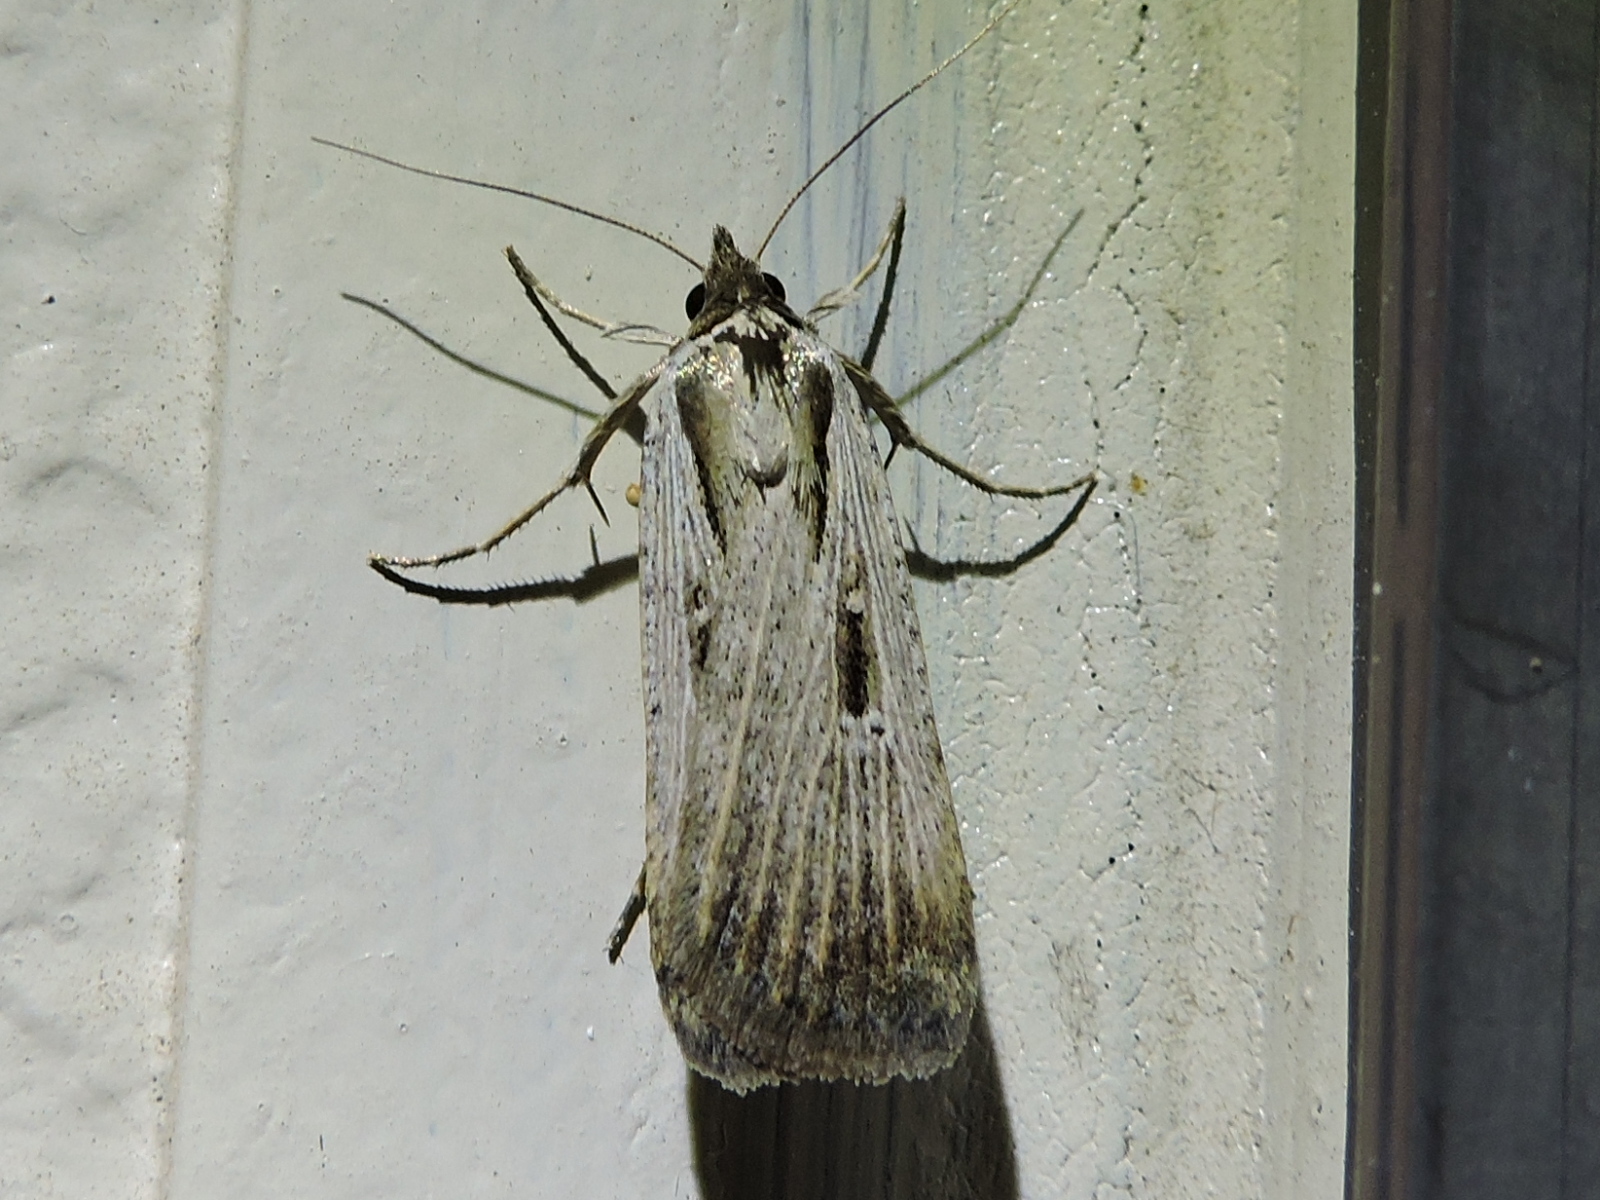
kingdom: Animalia
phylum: Arthropoda
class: Insecta
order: Lepidoptera
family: Noctuidae
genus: Tathorhynchus
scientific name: Tathorhynchus exsiccata
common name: Levant blackneck moth
